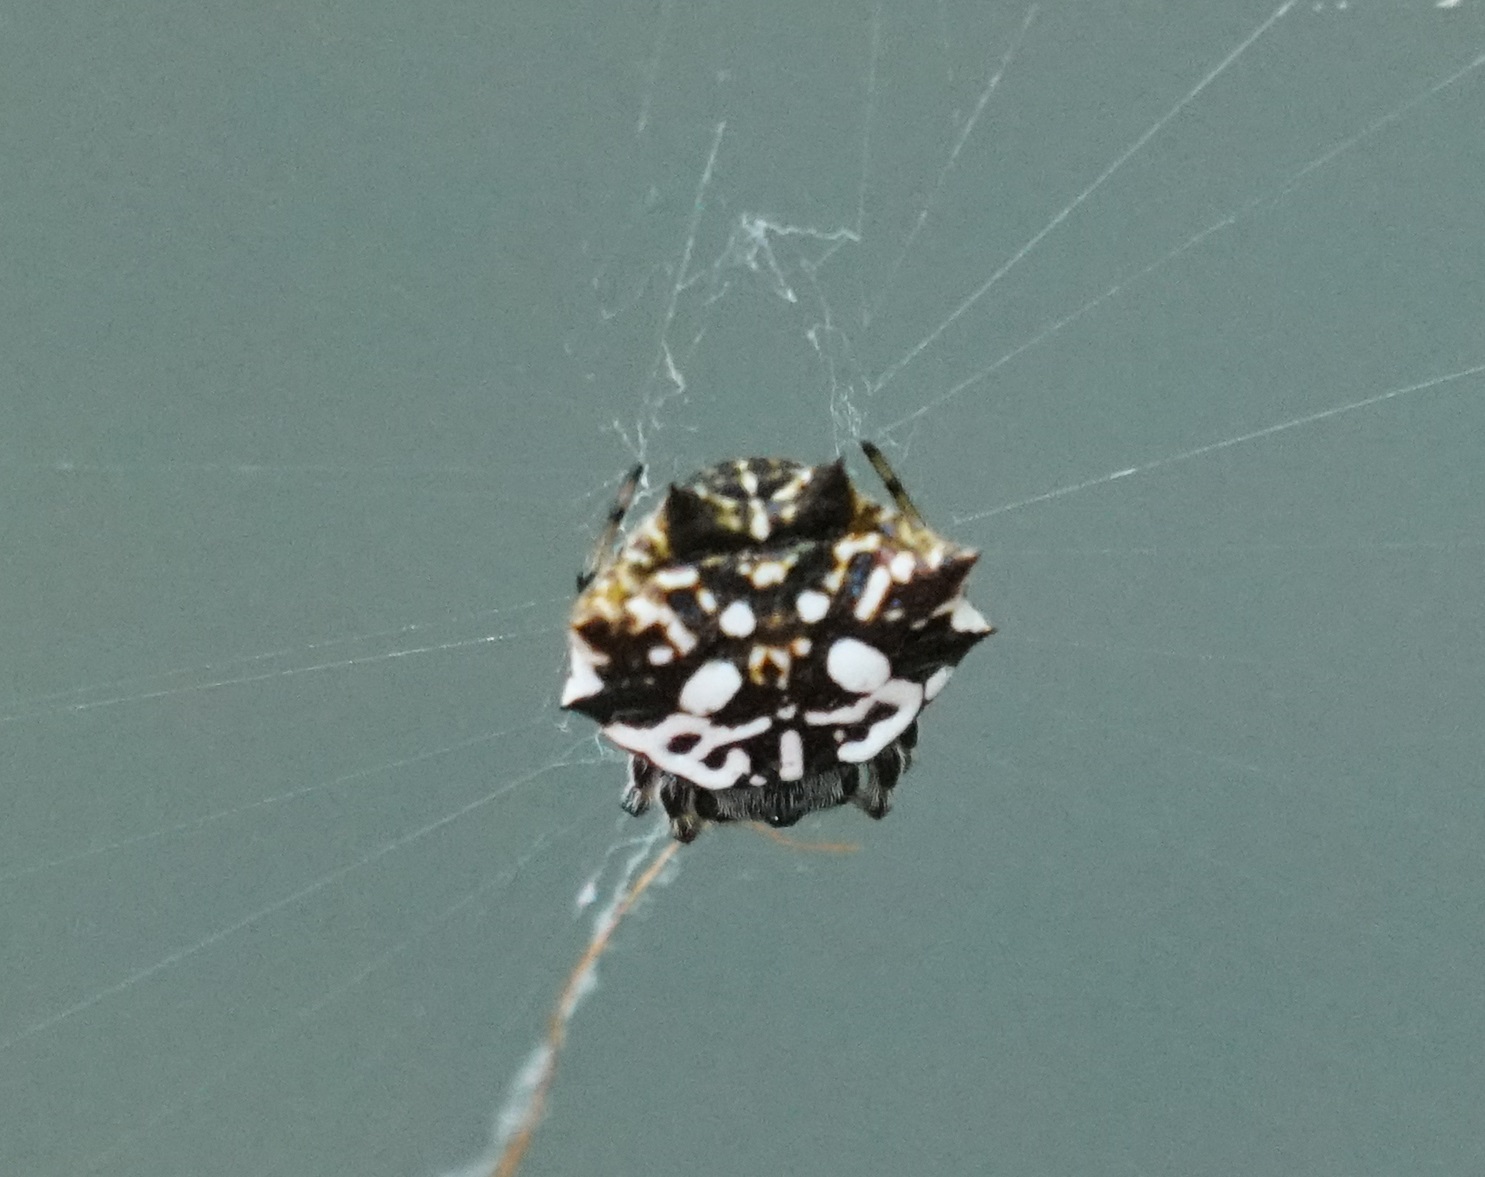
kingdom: Animalia
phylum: Arthropoda
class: Arachnida
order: Araneae
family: Araneidae
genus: Gasteracantha
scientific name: Gasteracantha sacerdotalis
